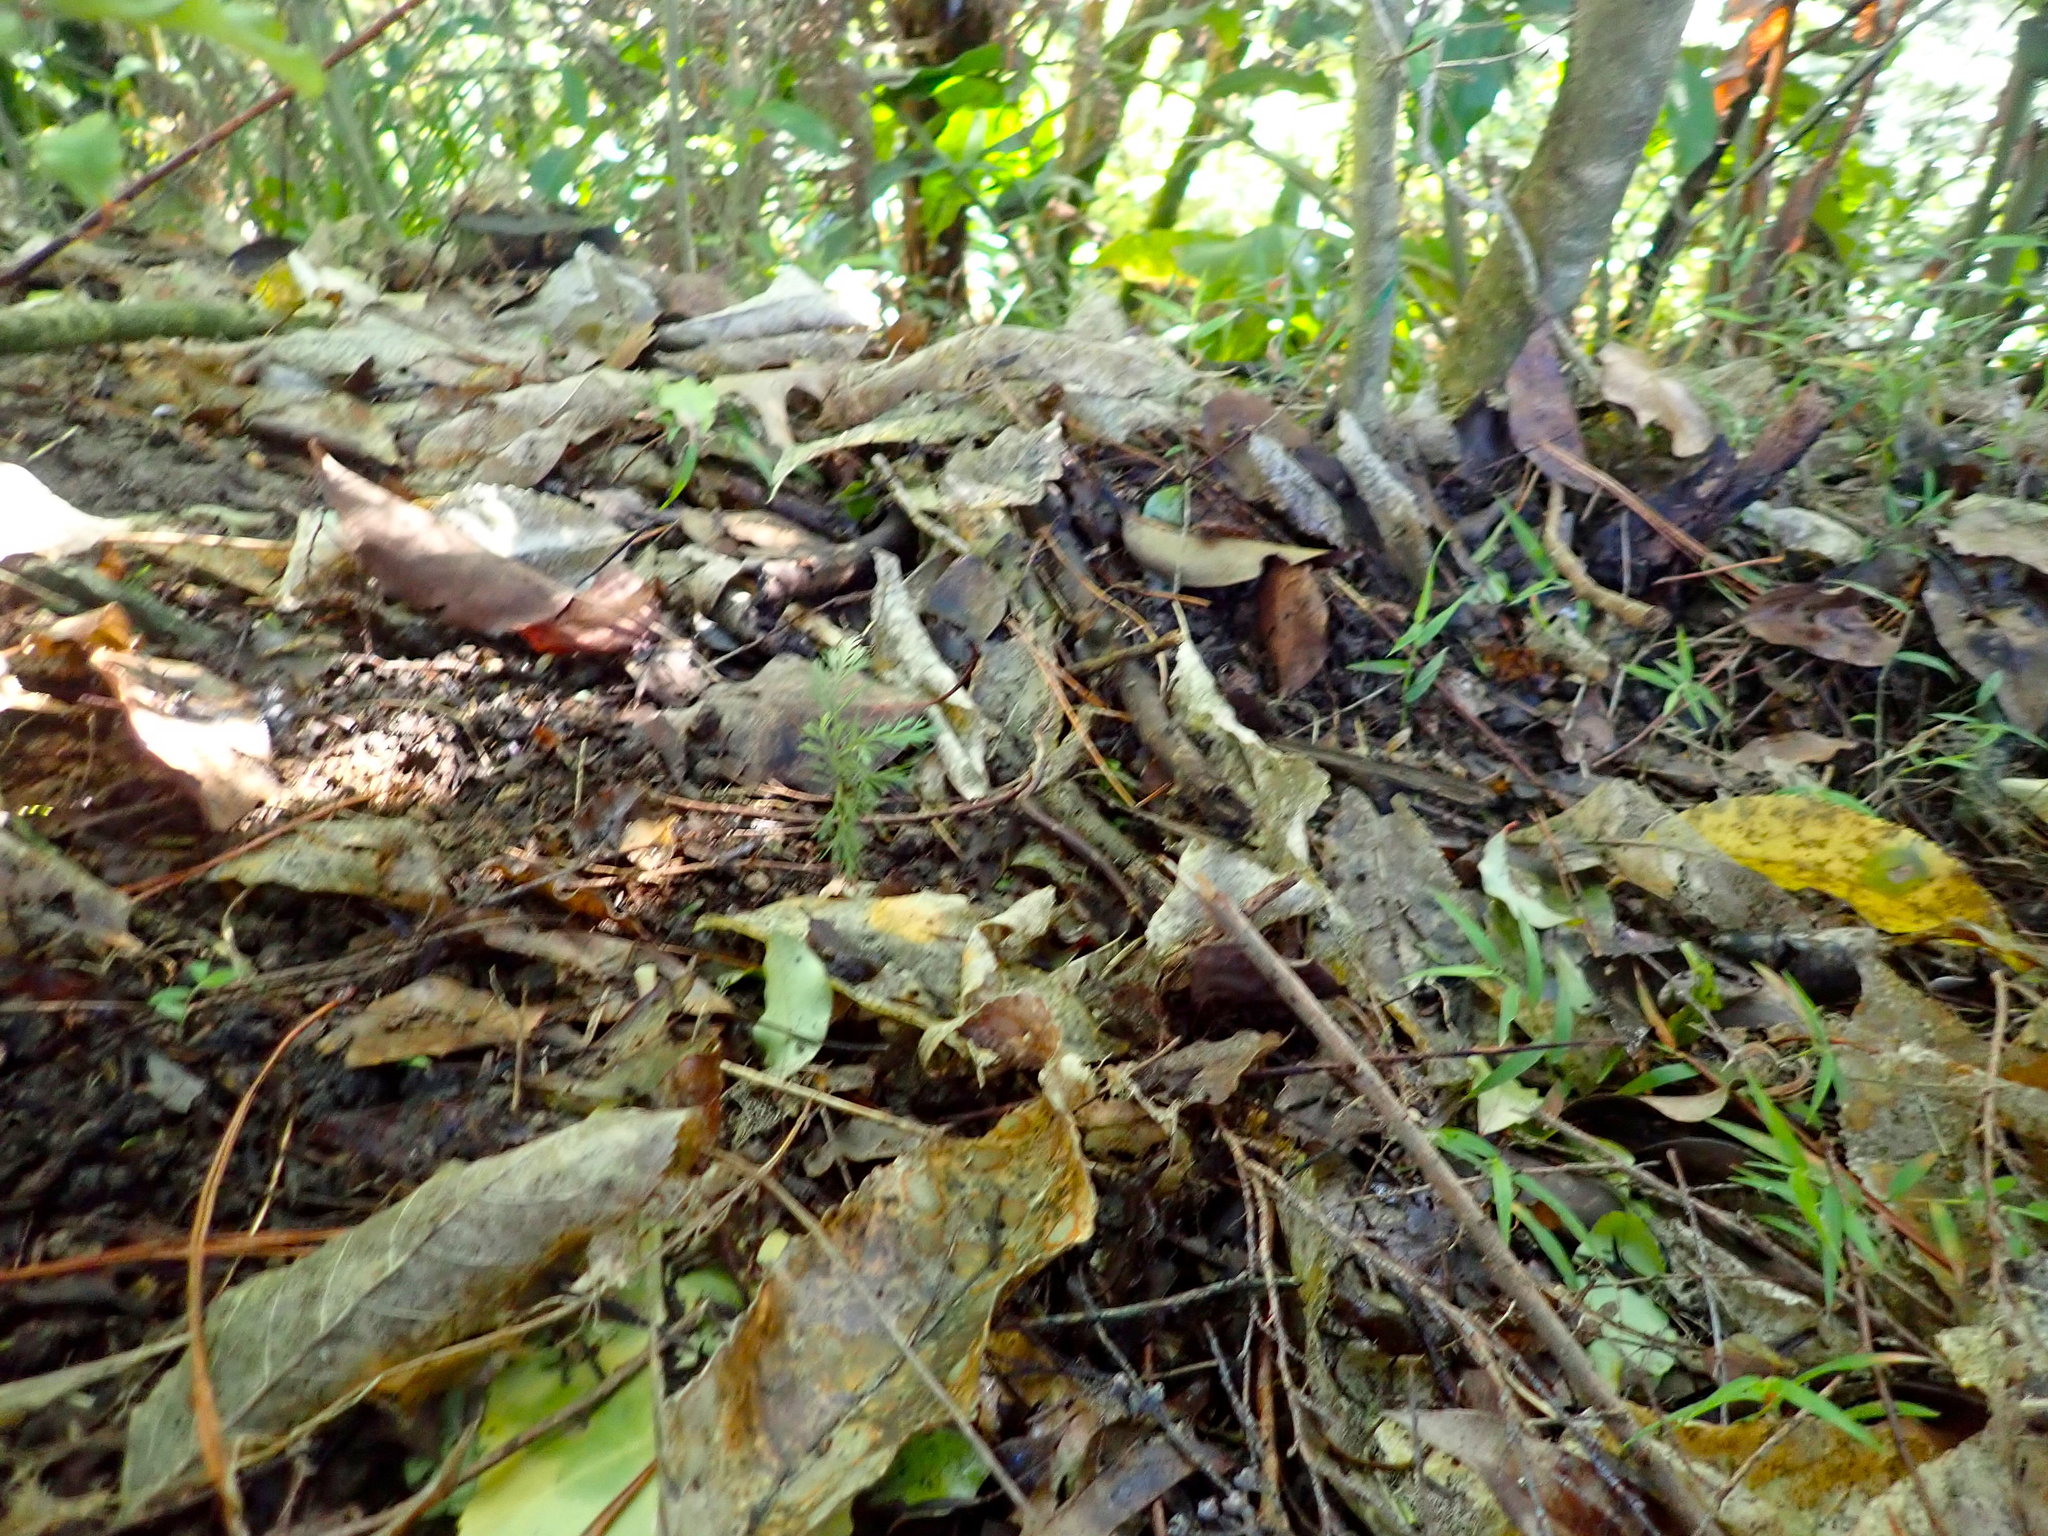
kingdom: Plantae
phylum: Tracheophyta
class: Pinopsida
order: Pinales
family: Phyllocladaceae
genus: Phyllocladus
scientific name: Phyllocladus trichomanoides
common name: Celery pine
